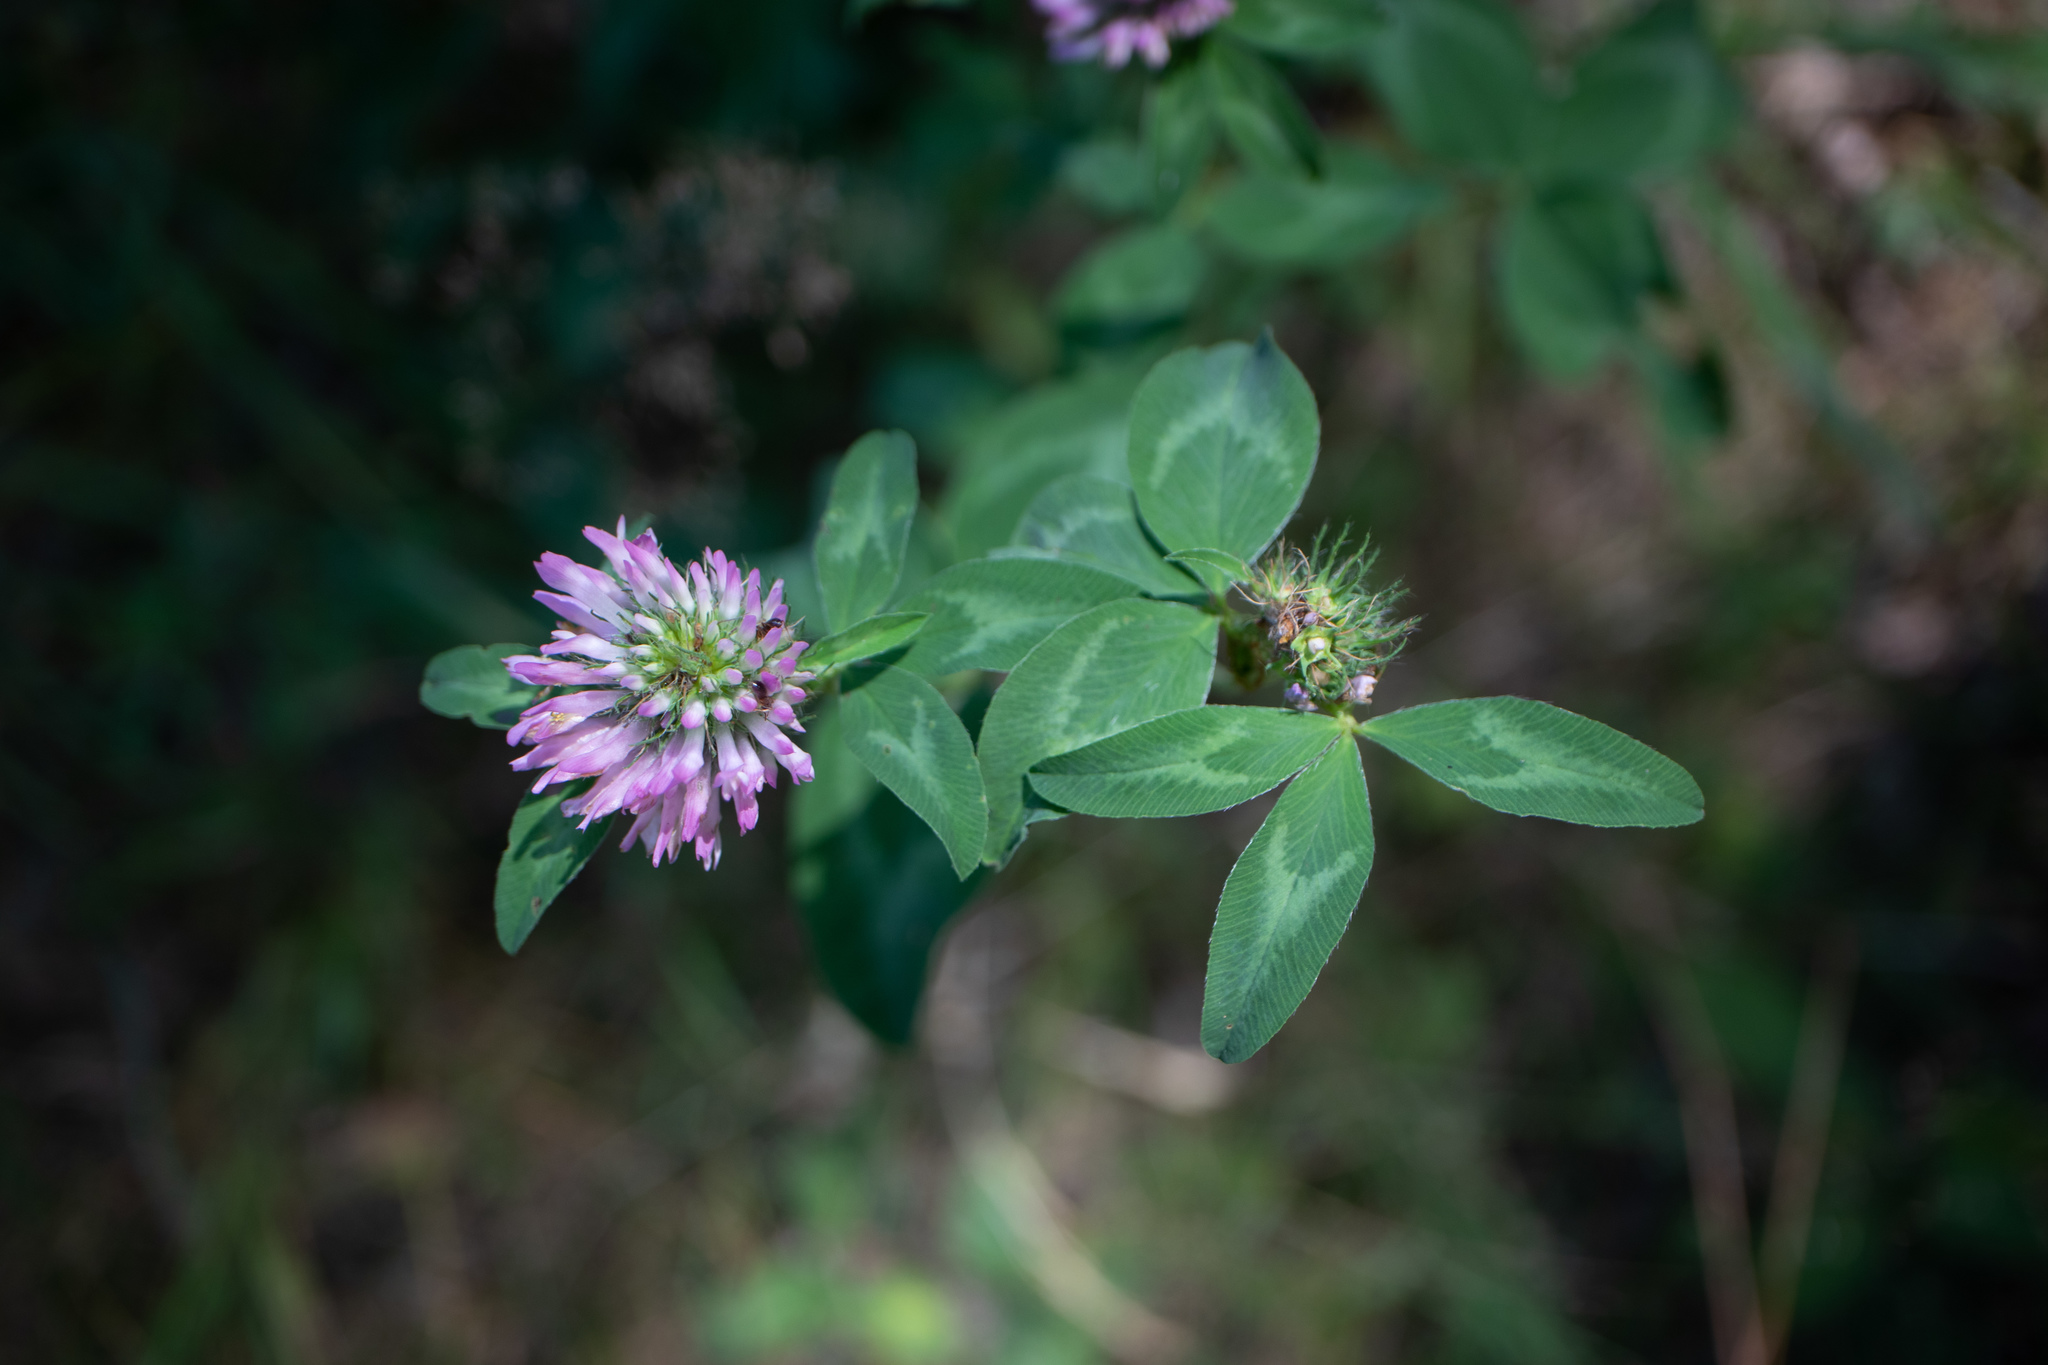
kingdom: Plantae
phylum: Tracheophyta
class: Magnoliopsida
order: Fabales
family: Fabaceae
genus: Trifolium
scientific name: Trifolium pratense
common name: Red clover
